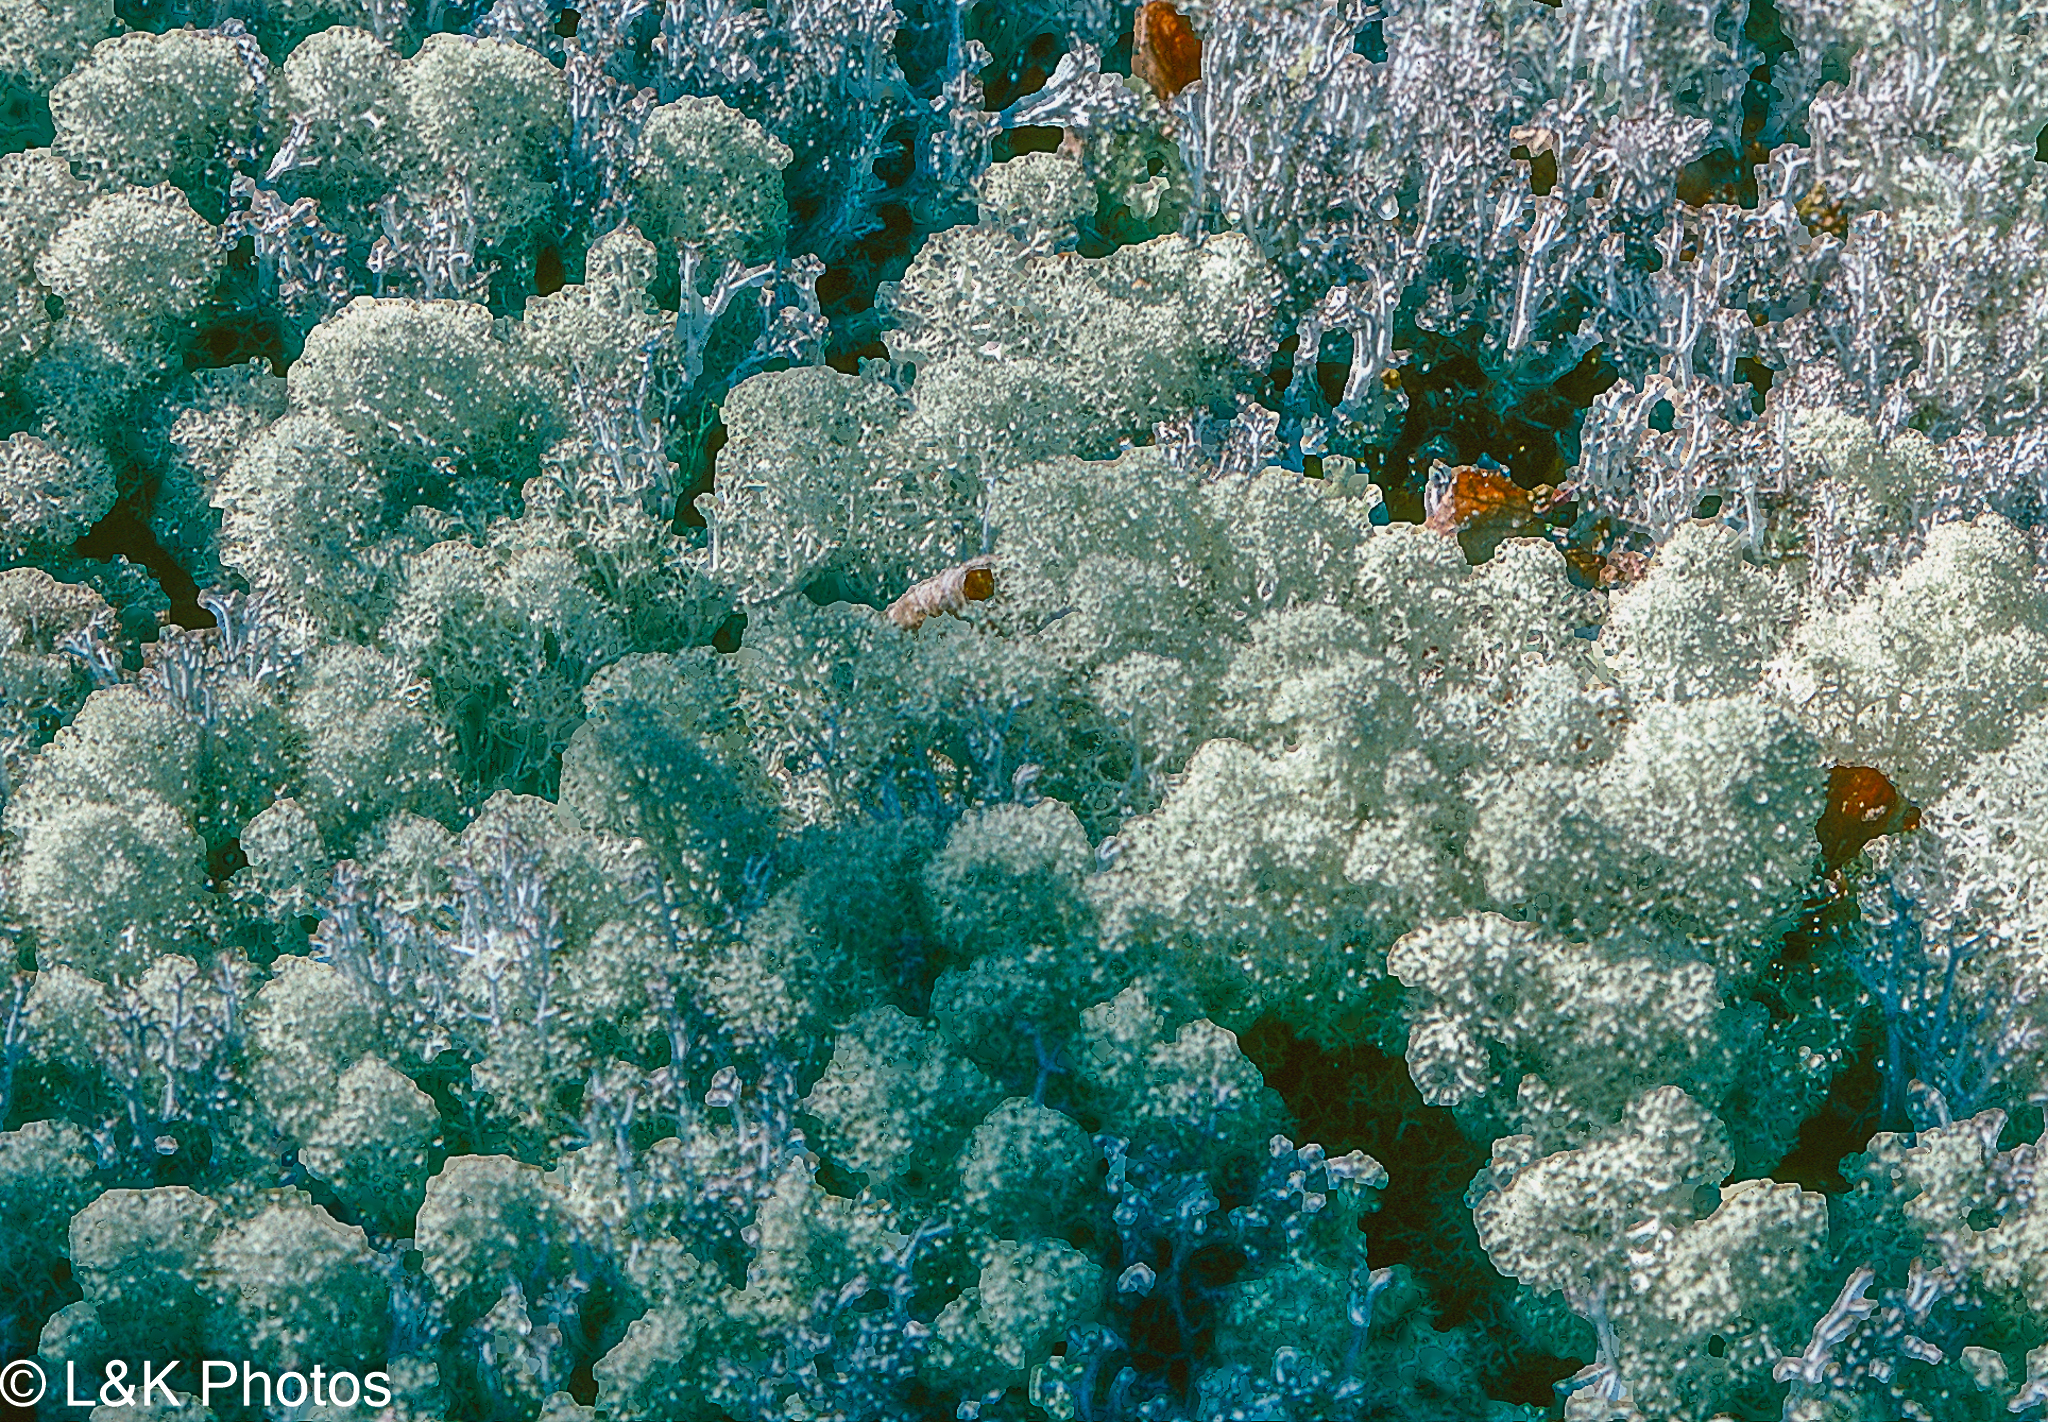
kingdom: Fungi
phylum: Ascomycota
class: Lecanoromycetes
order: Lecanorales
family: Cladoniaceae
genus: Cladonia
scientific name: Cladonia stellaris
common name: Star-tipped reindeer lichen
